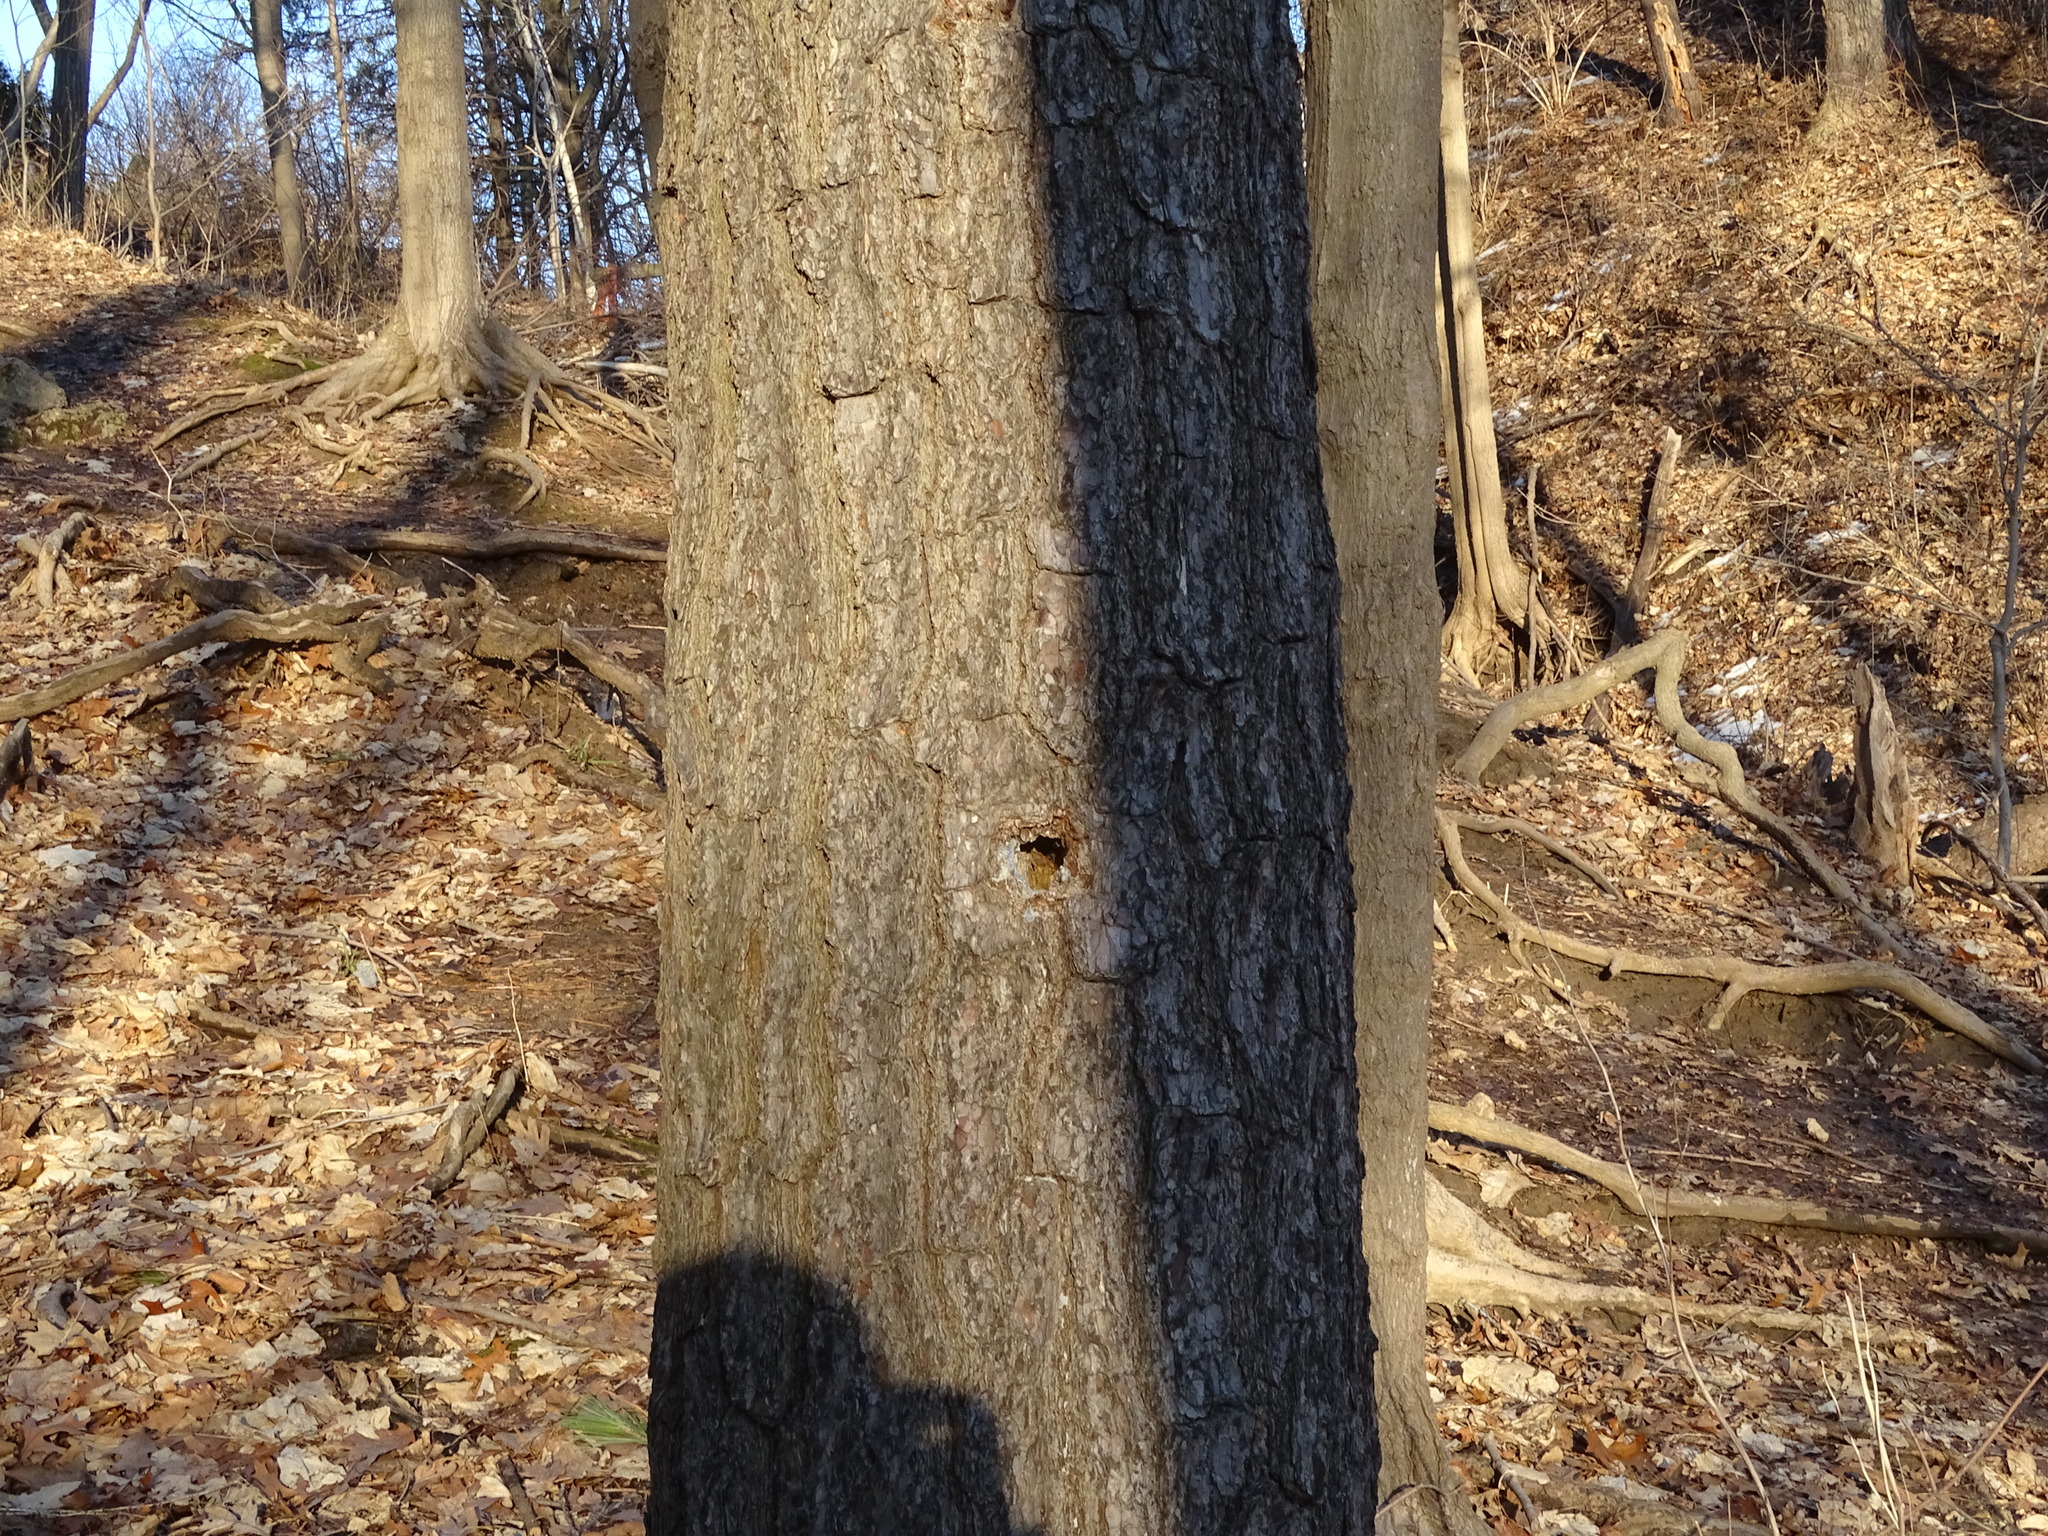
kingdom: Plantae
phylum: Tracheophyta
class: Pinopsida
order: Pinales
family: Pinaceae
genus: Pinus
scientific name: Pinus strobus
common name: Weymouth pine
